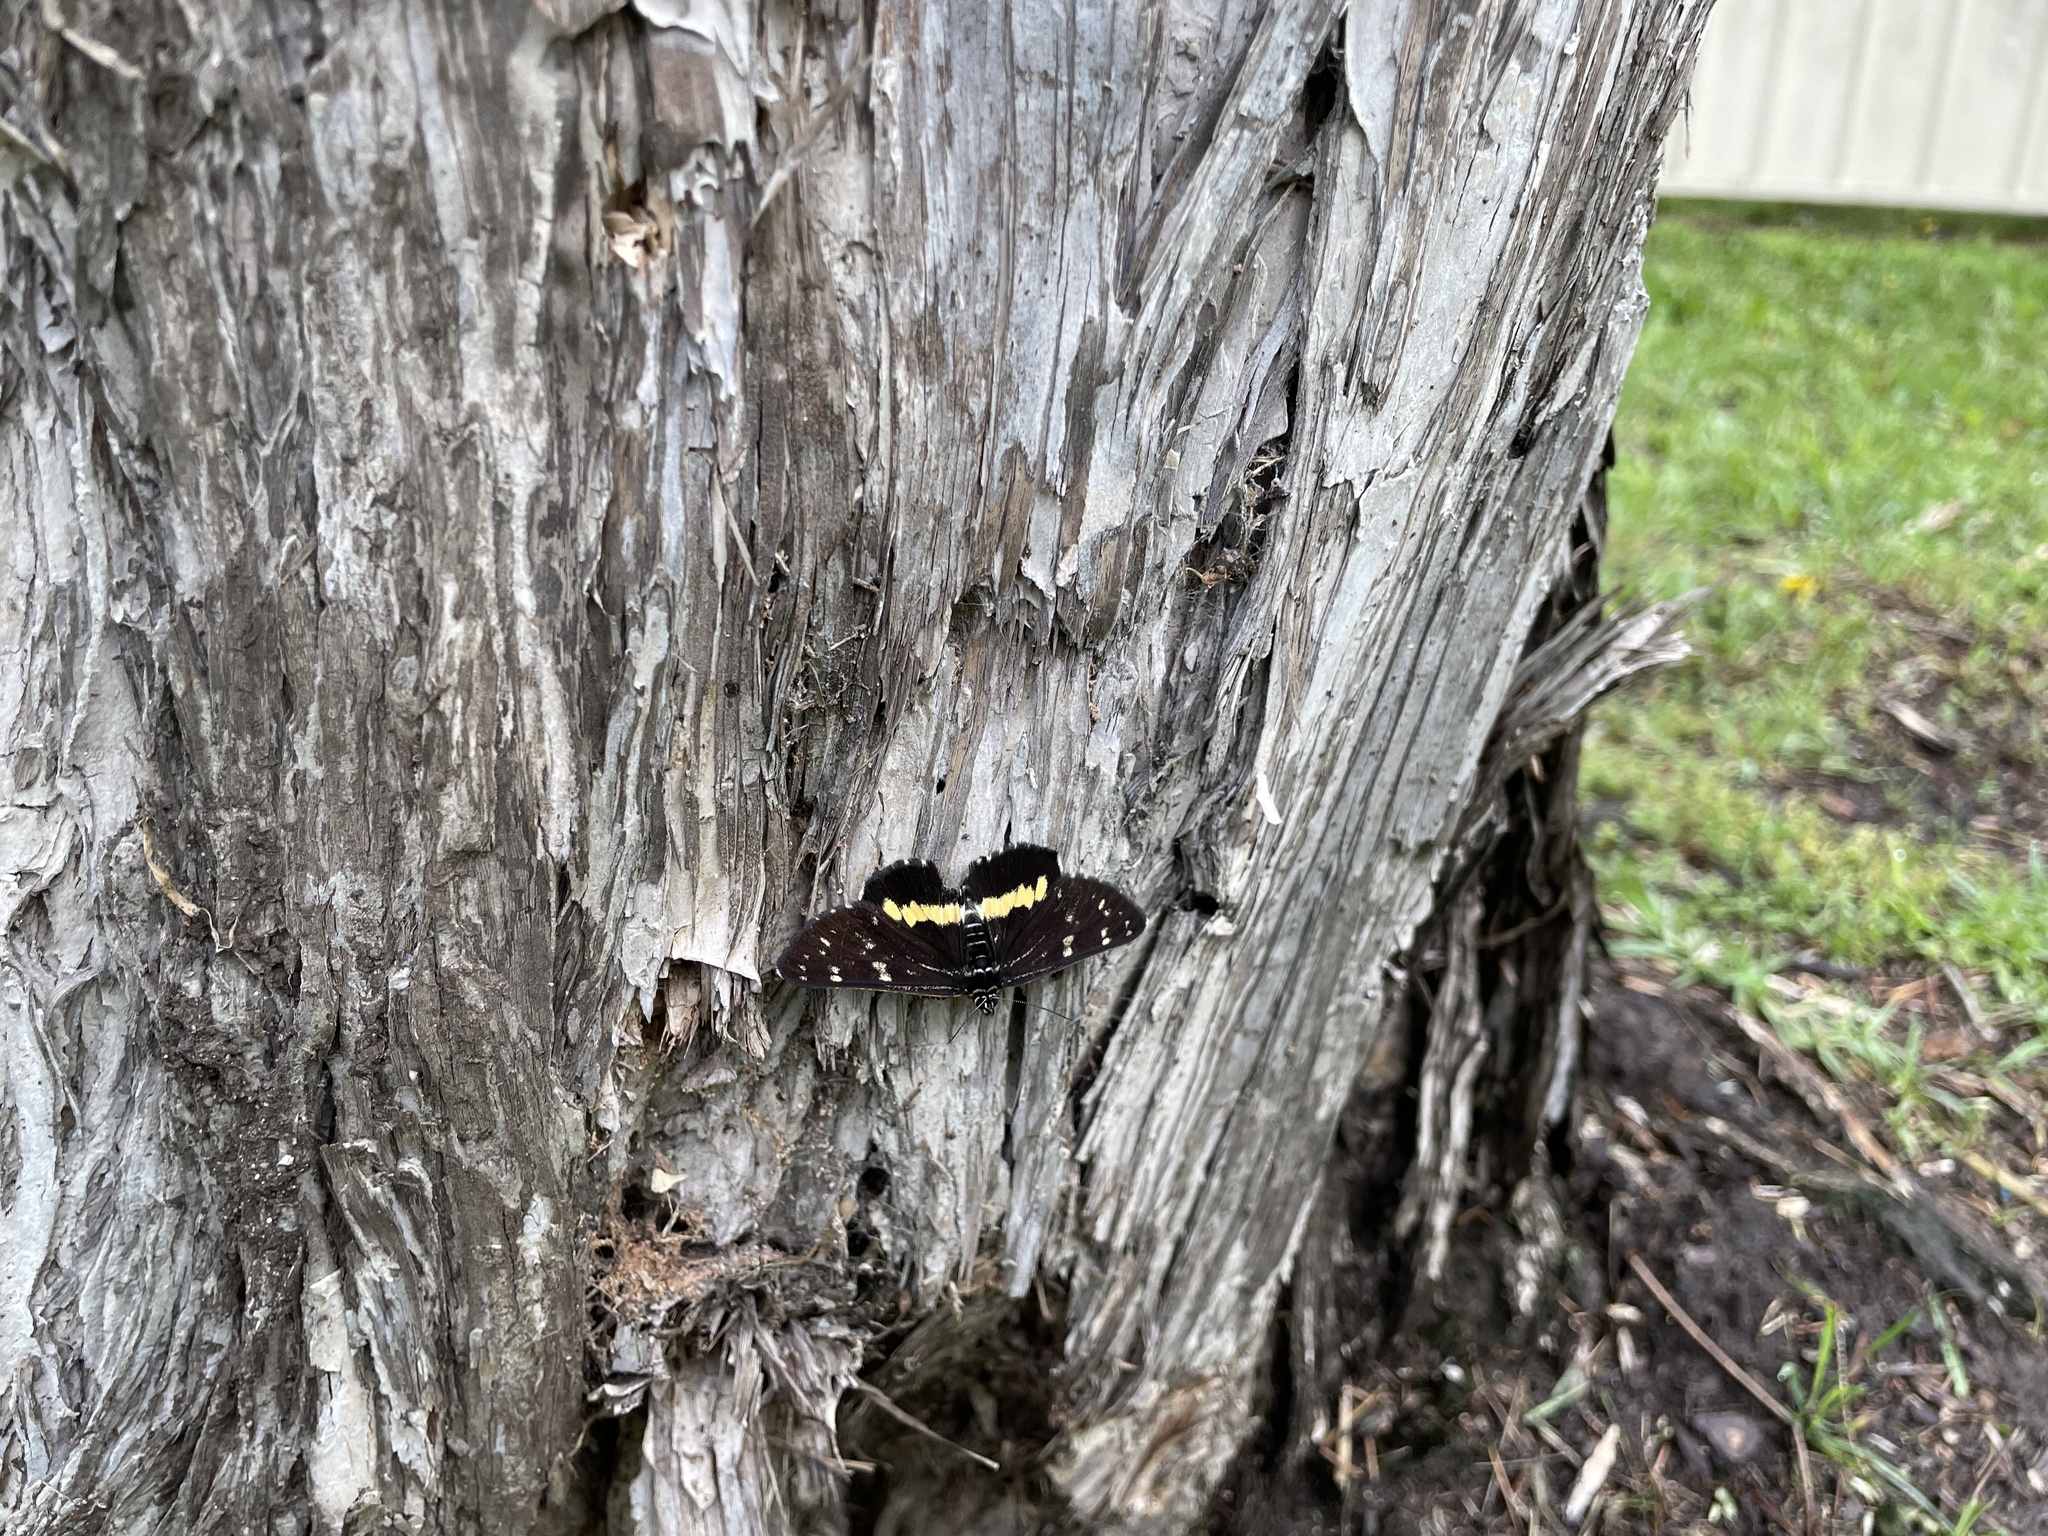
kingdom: Animalia
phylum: Arthropoda
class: Insecta
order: Lepidoptera
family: Noctuidae
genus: Cruria
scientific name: Cruria synopla
